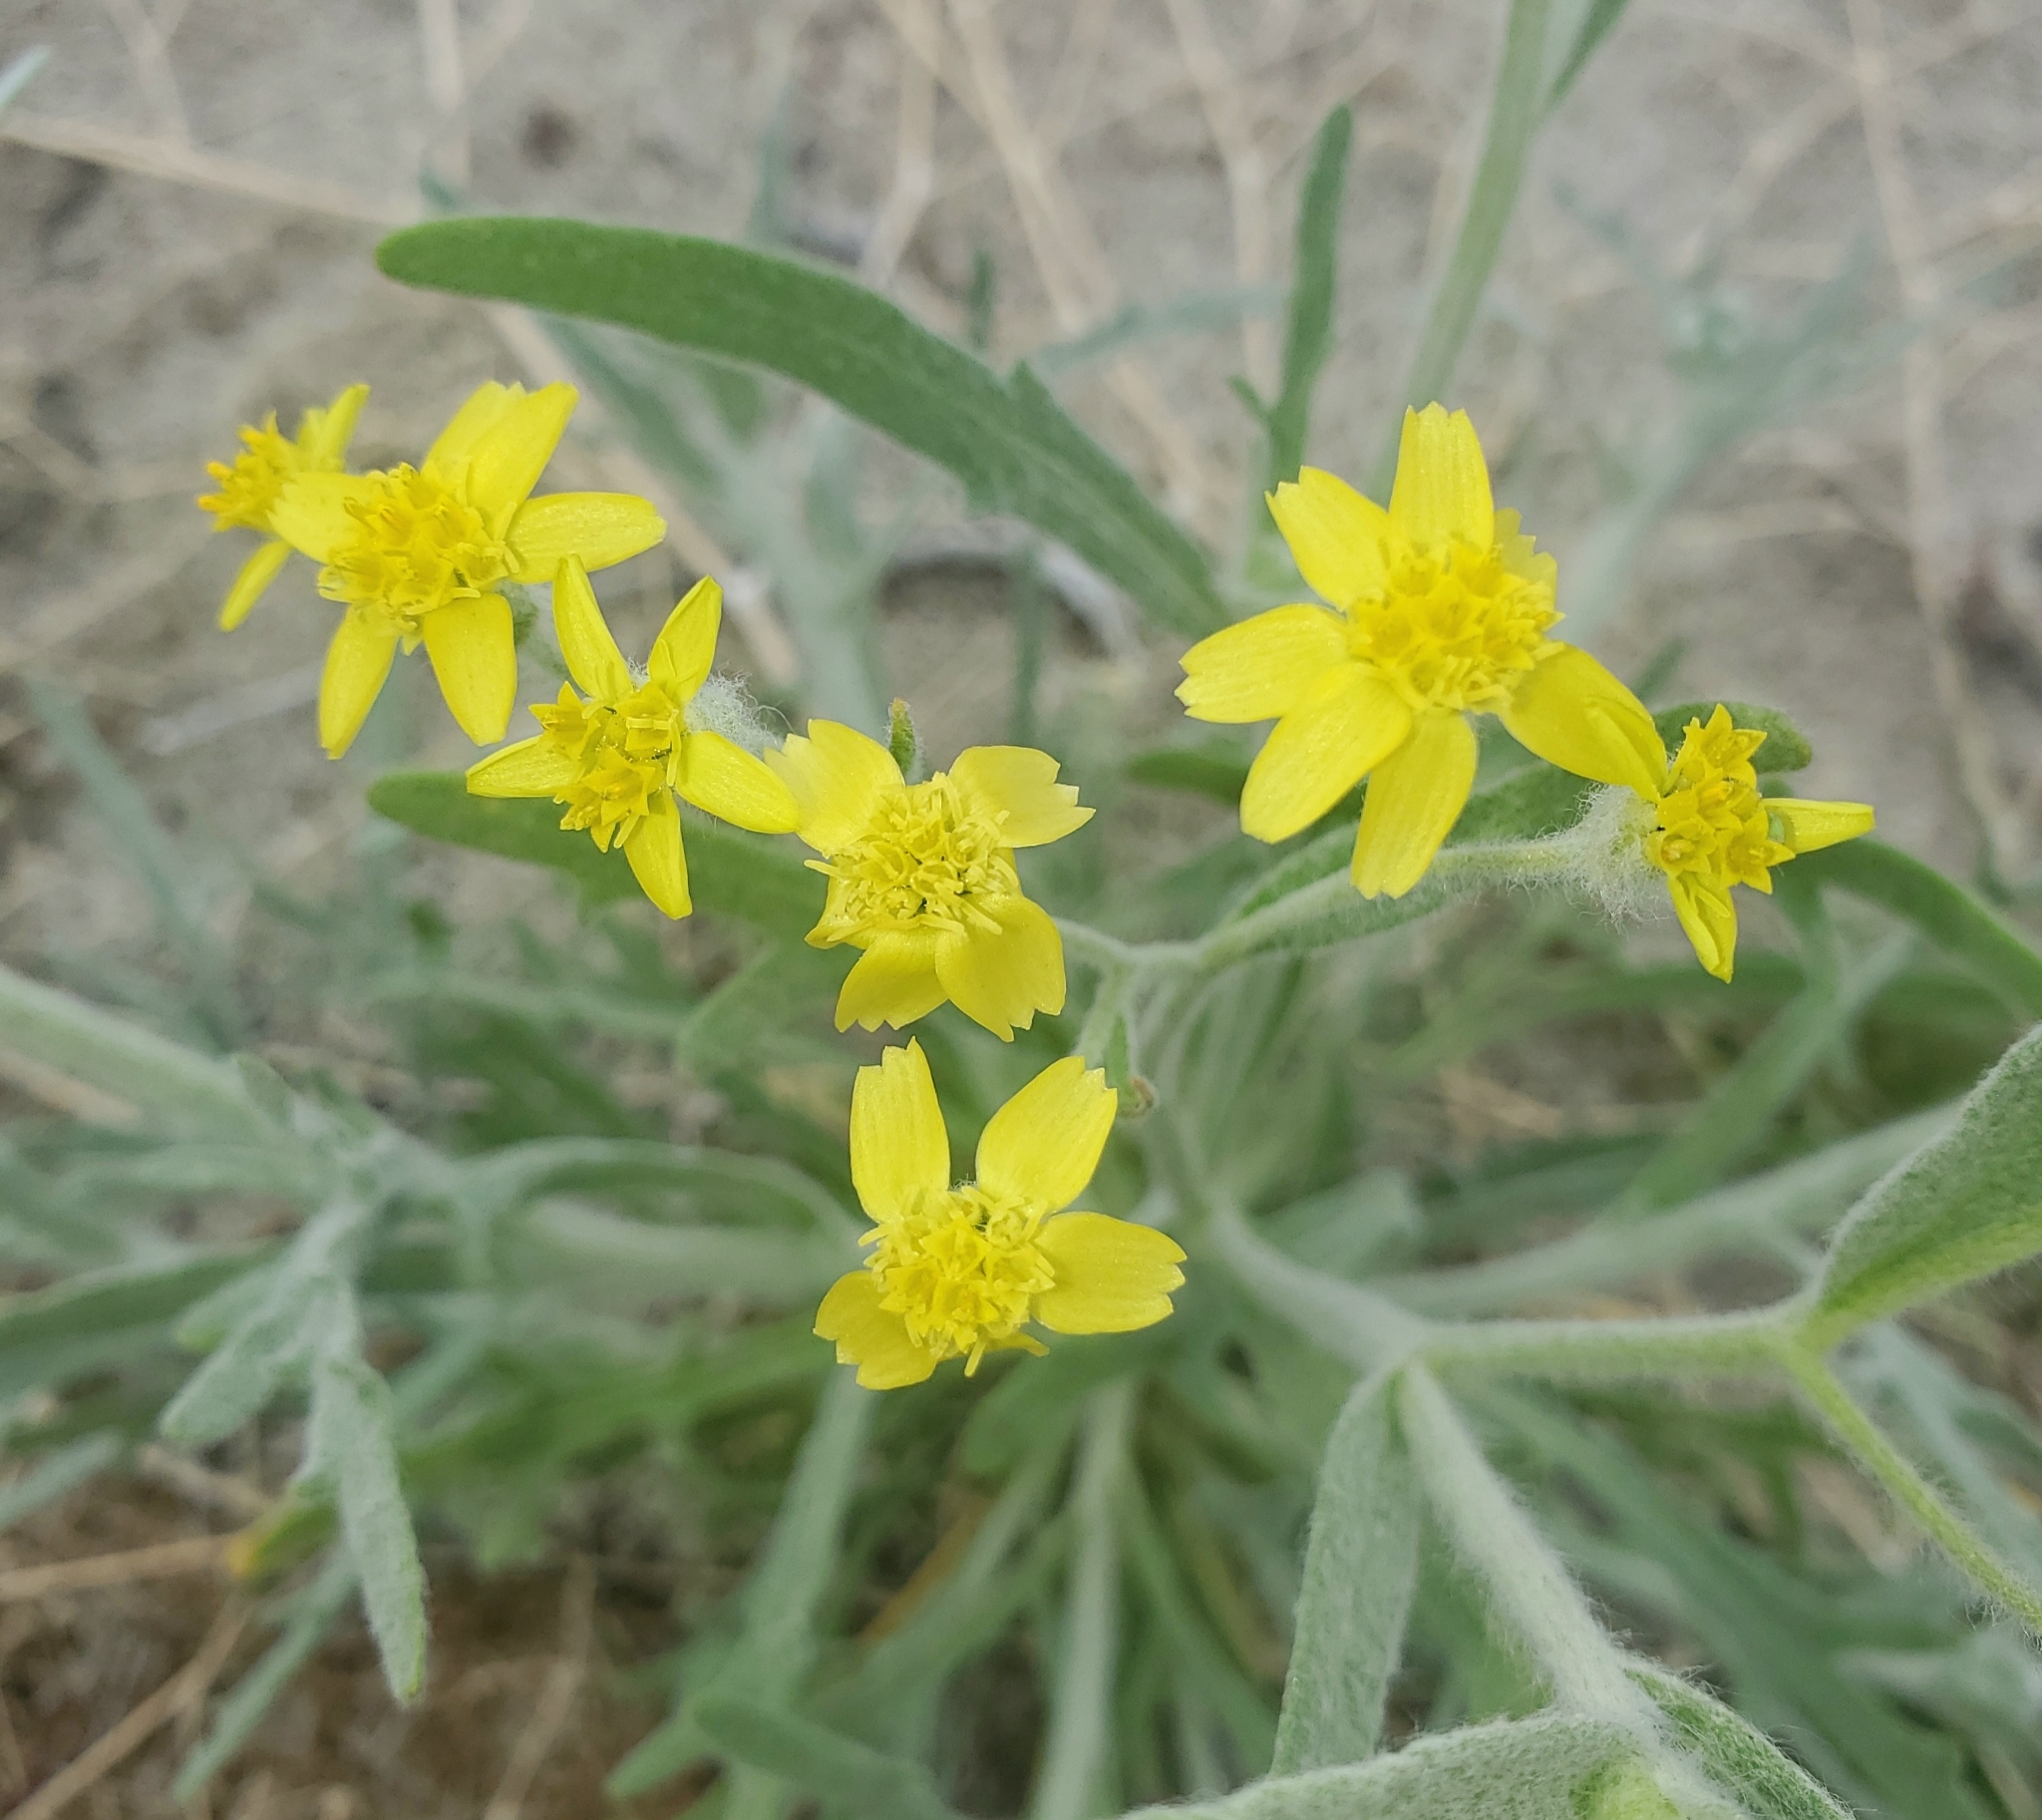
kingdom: Plantae
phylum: Tracheophyta
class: Magnoliopsida
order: Asterales
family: Asteraceae
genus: Baileya
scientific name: Baileya pauciradiata
